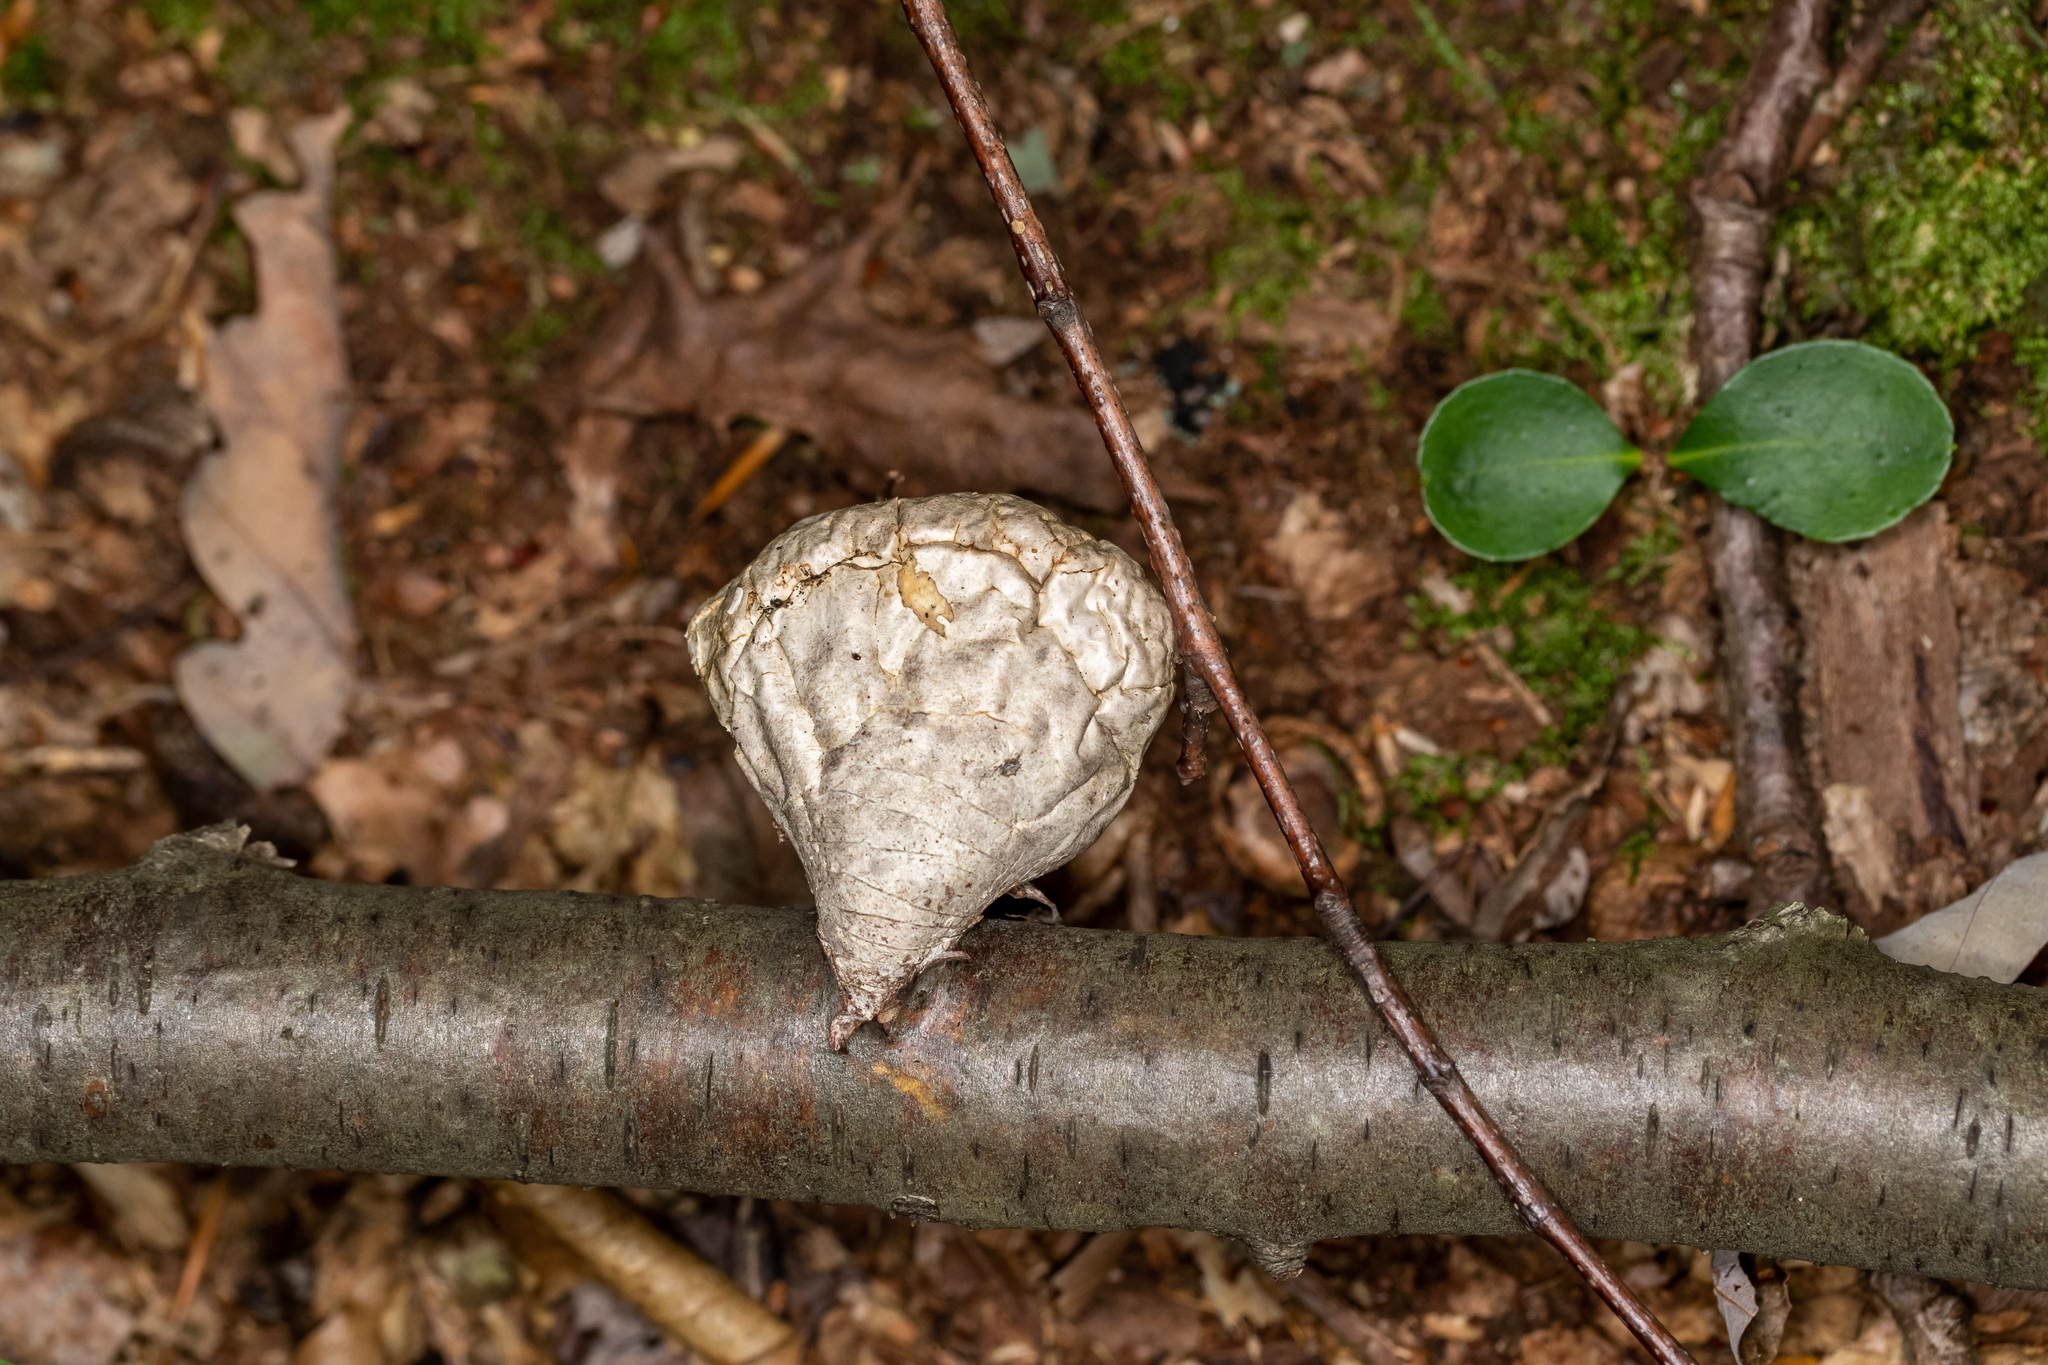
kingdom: Fungi
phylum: Basidiomycota
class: Agaricomycetes
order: Polyporales
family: Fomitopsidaceae
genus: Fomitopsis
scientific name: Fomitopsis betulina
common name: Birch polypore
